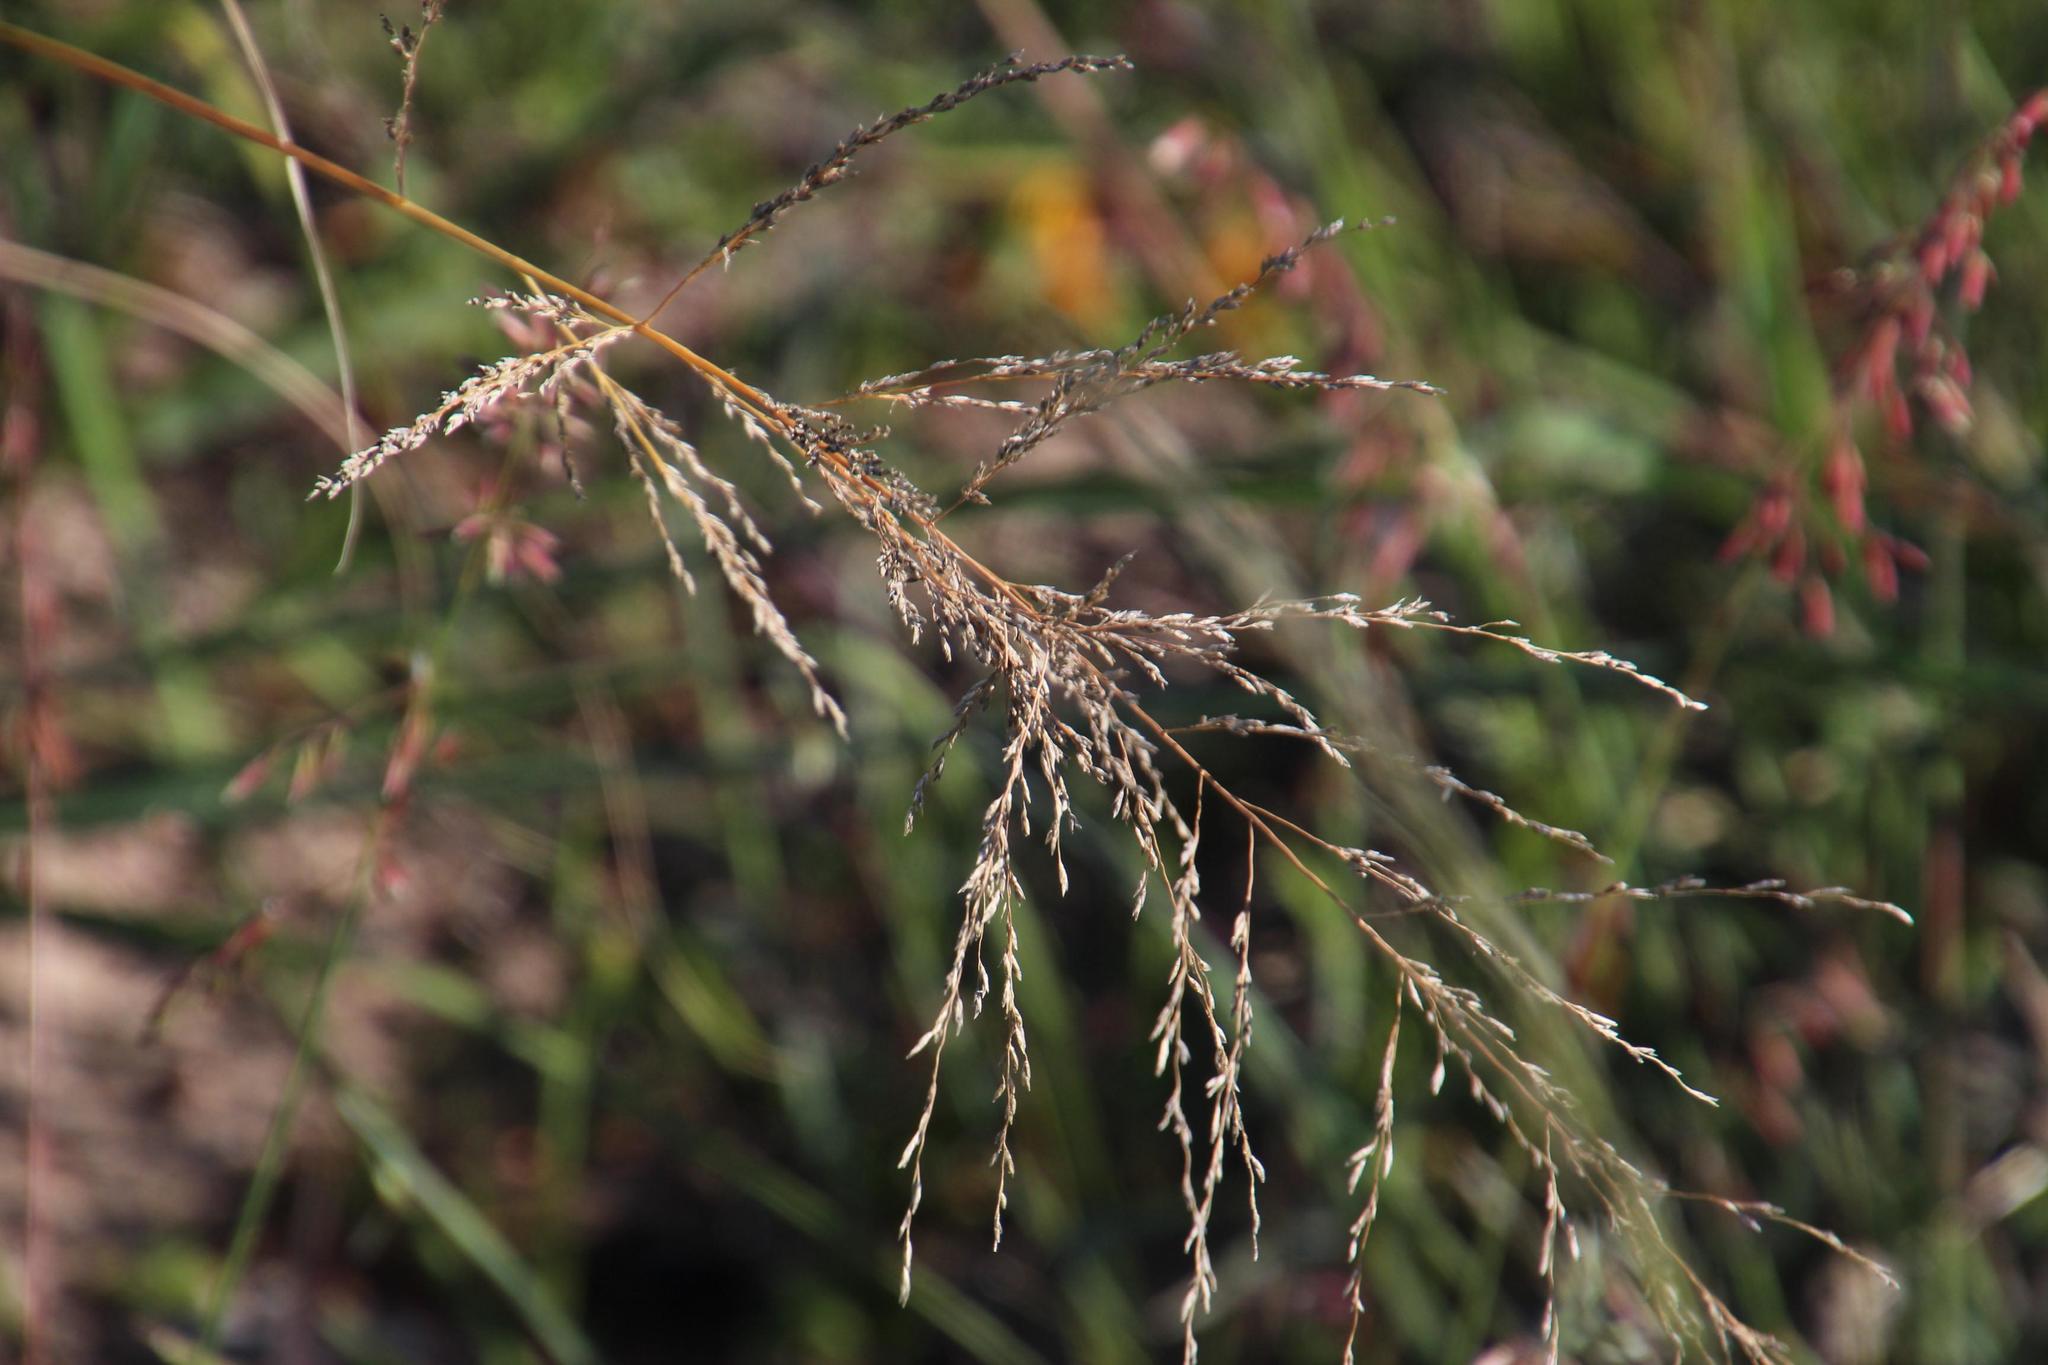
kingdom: Plantae
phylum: Tracheophyta
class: Liliopsida
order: Poales
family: Poaceae
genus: Eragrostis
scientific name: Eragrostis curvula
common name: African love-grass
